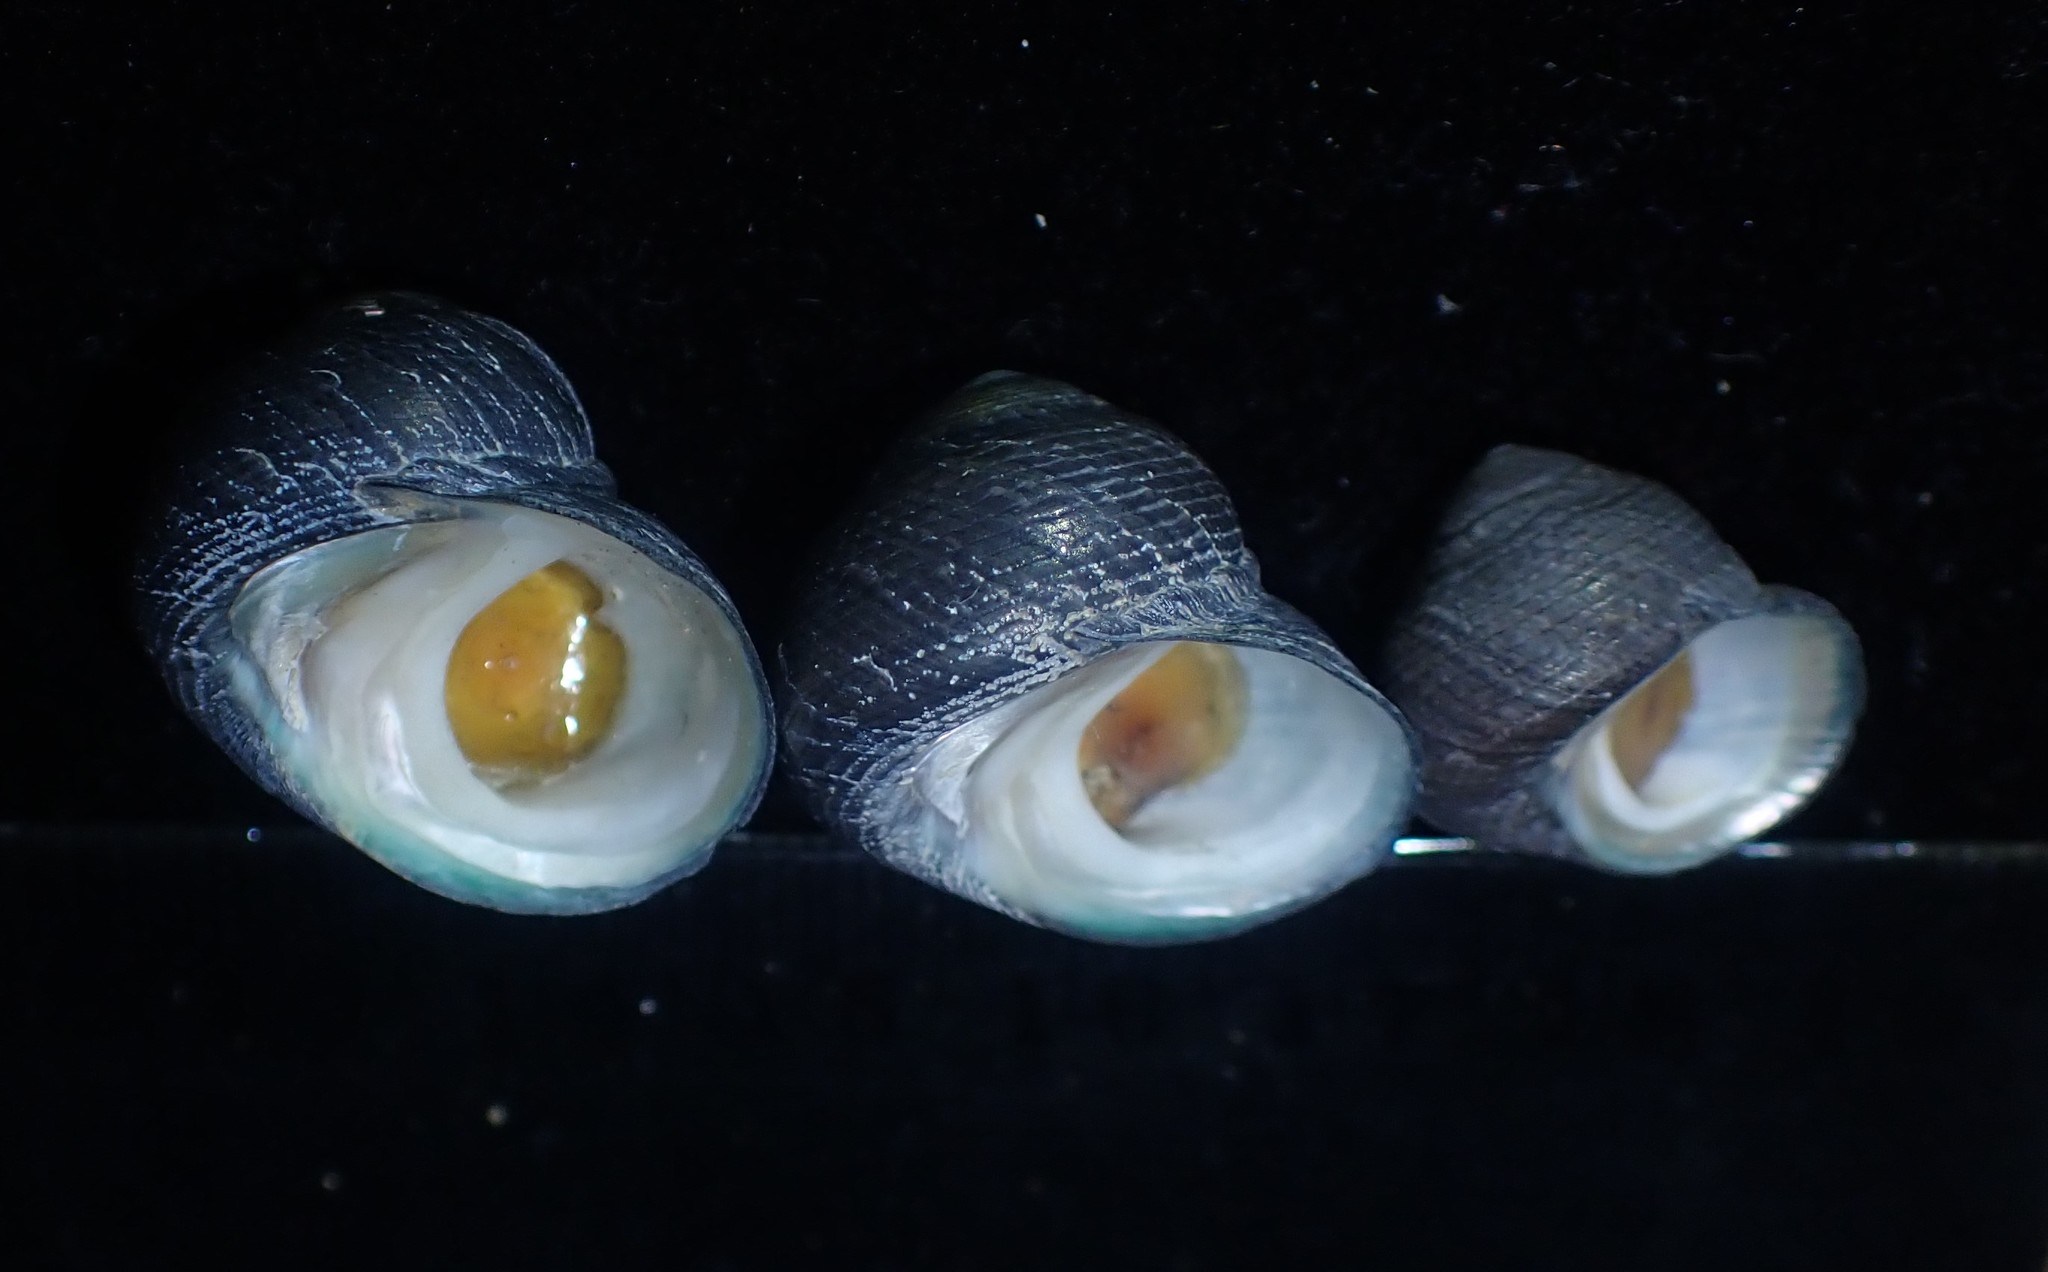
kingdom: Animalia
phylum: Mollusca
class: Gastropoda
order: Trochida
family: Trochidae
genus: Diloma
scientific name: Diloma nigerrimum
